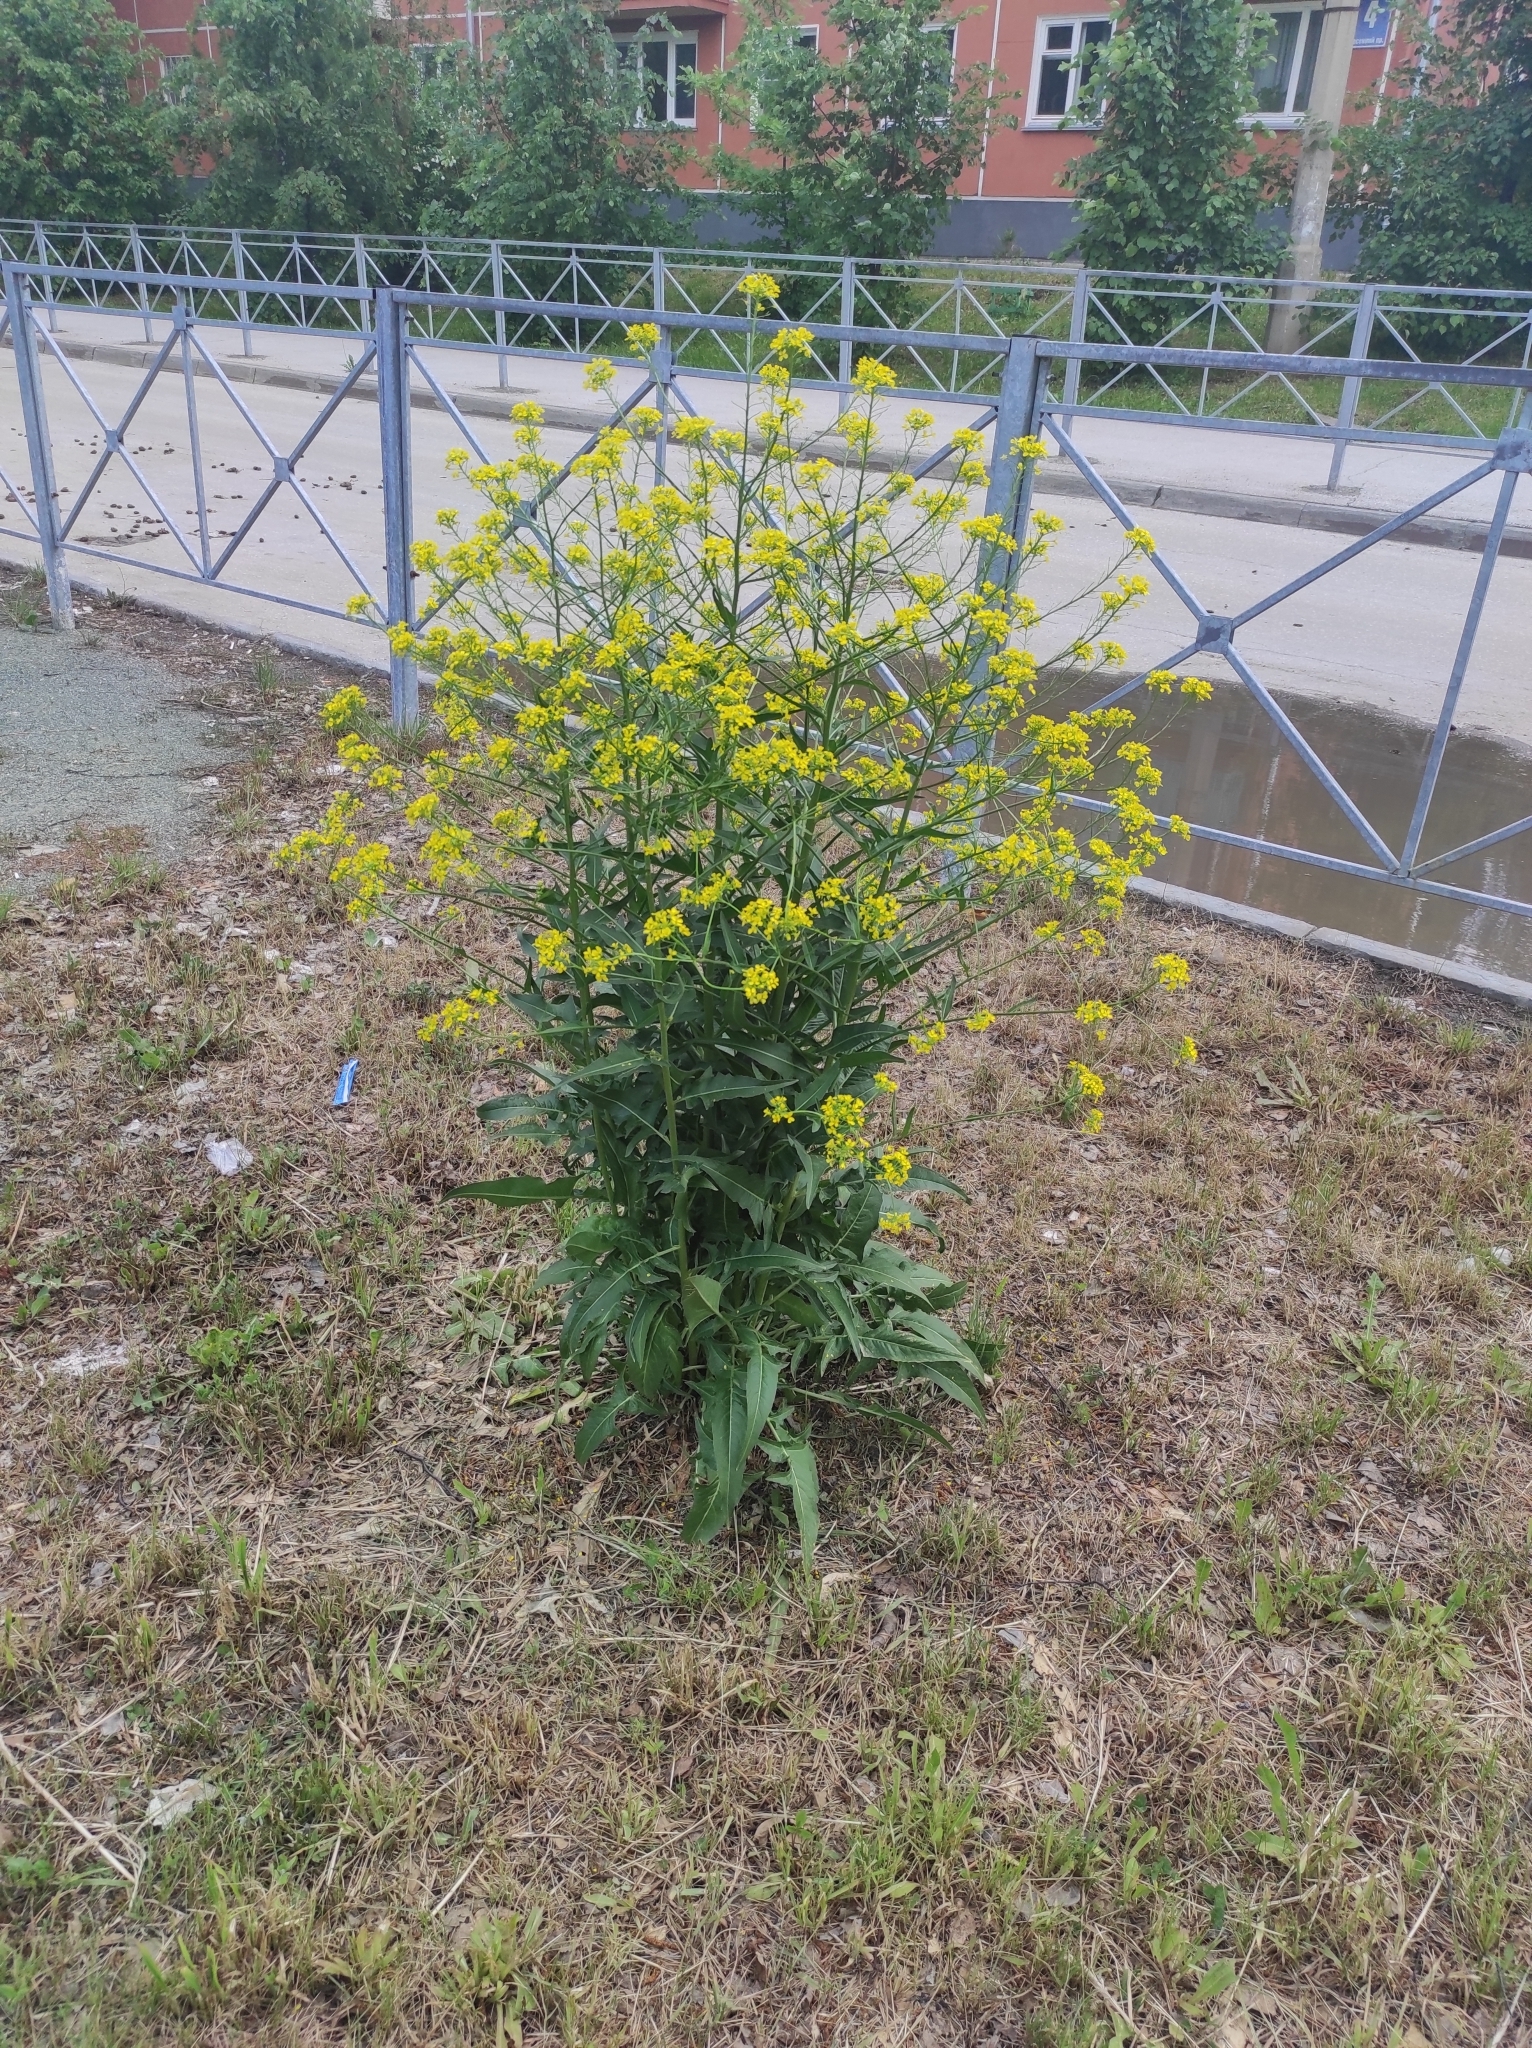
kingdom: Plantae
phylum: Tracheophyta
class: Magnoliopsida
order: Brassicales
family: Brassicaceae
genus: Bunias
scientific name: Bunias orientalis
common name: Warty-cabbage
